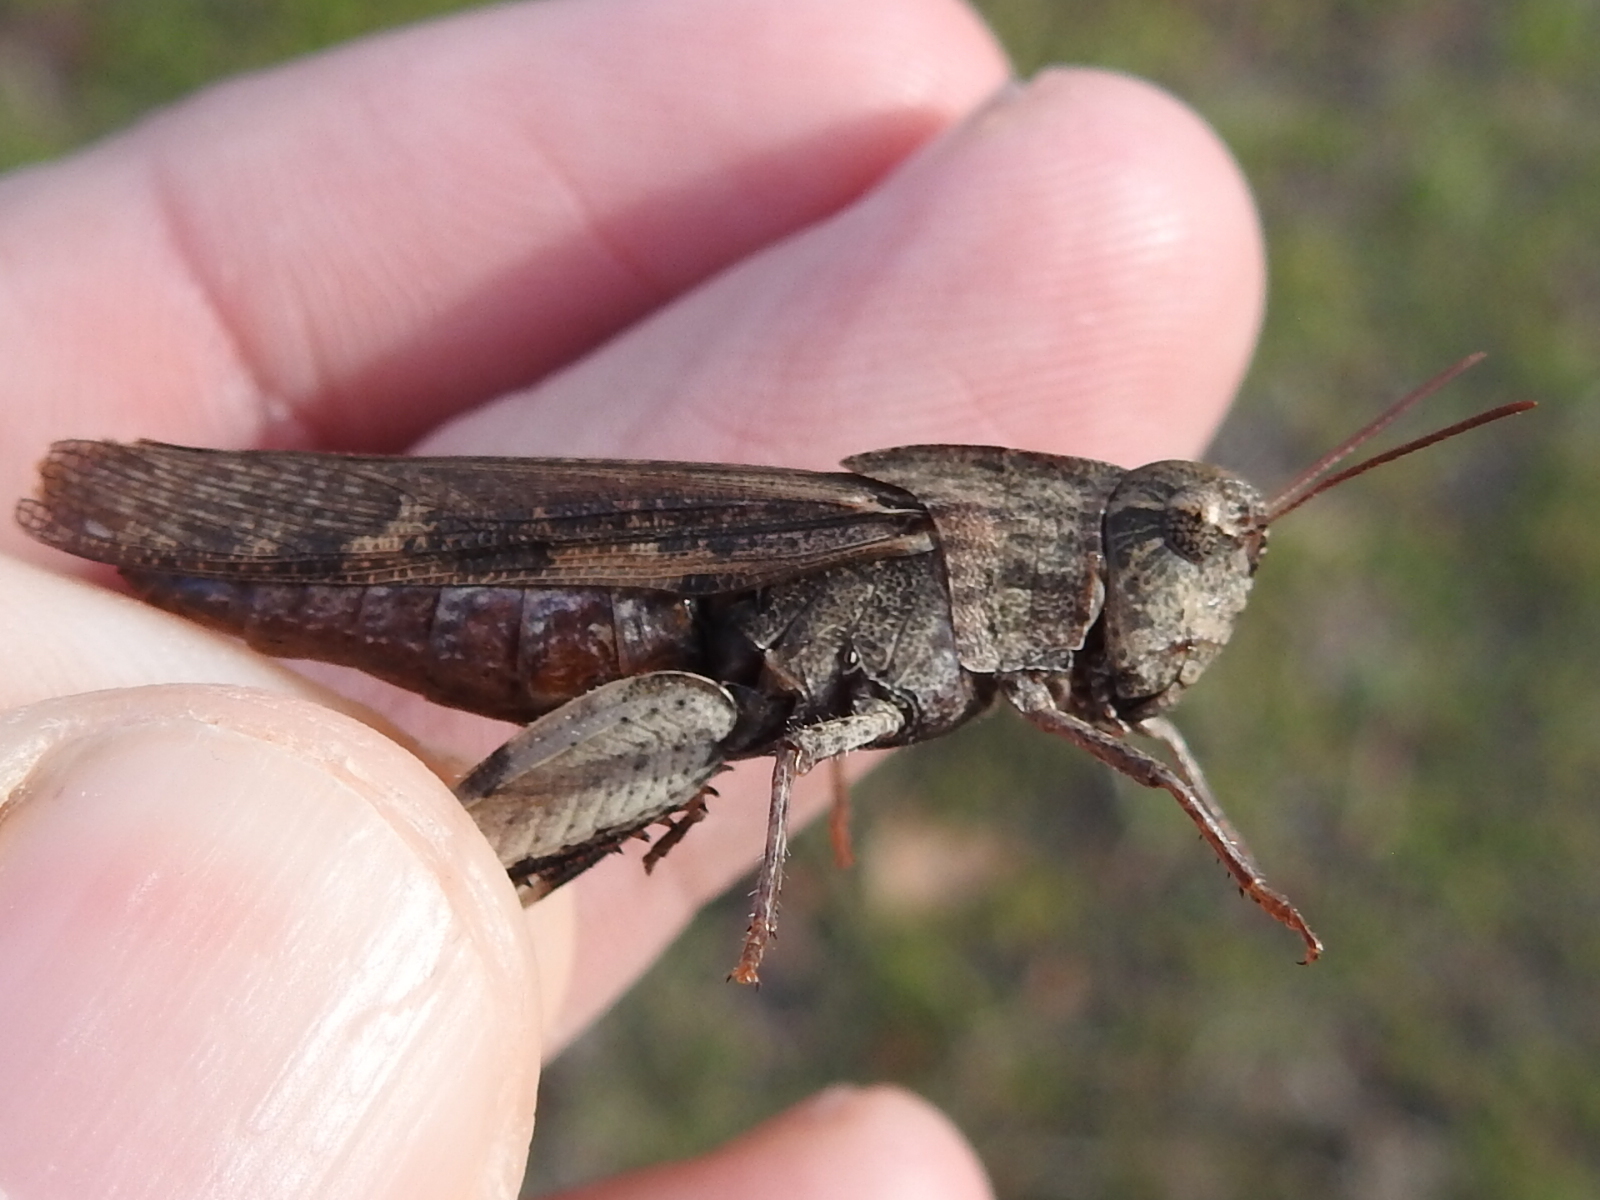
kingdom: Animalia
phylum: Arthropoda
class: Insecta
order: Orthoptera
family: Acrididae
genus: Chortophaga
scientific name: Chortophaga viridifasciata
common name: Green-striped grasshopper
